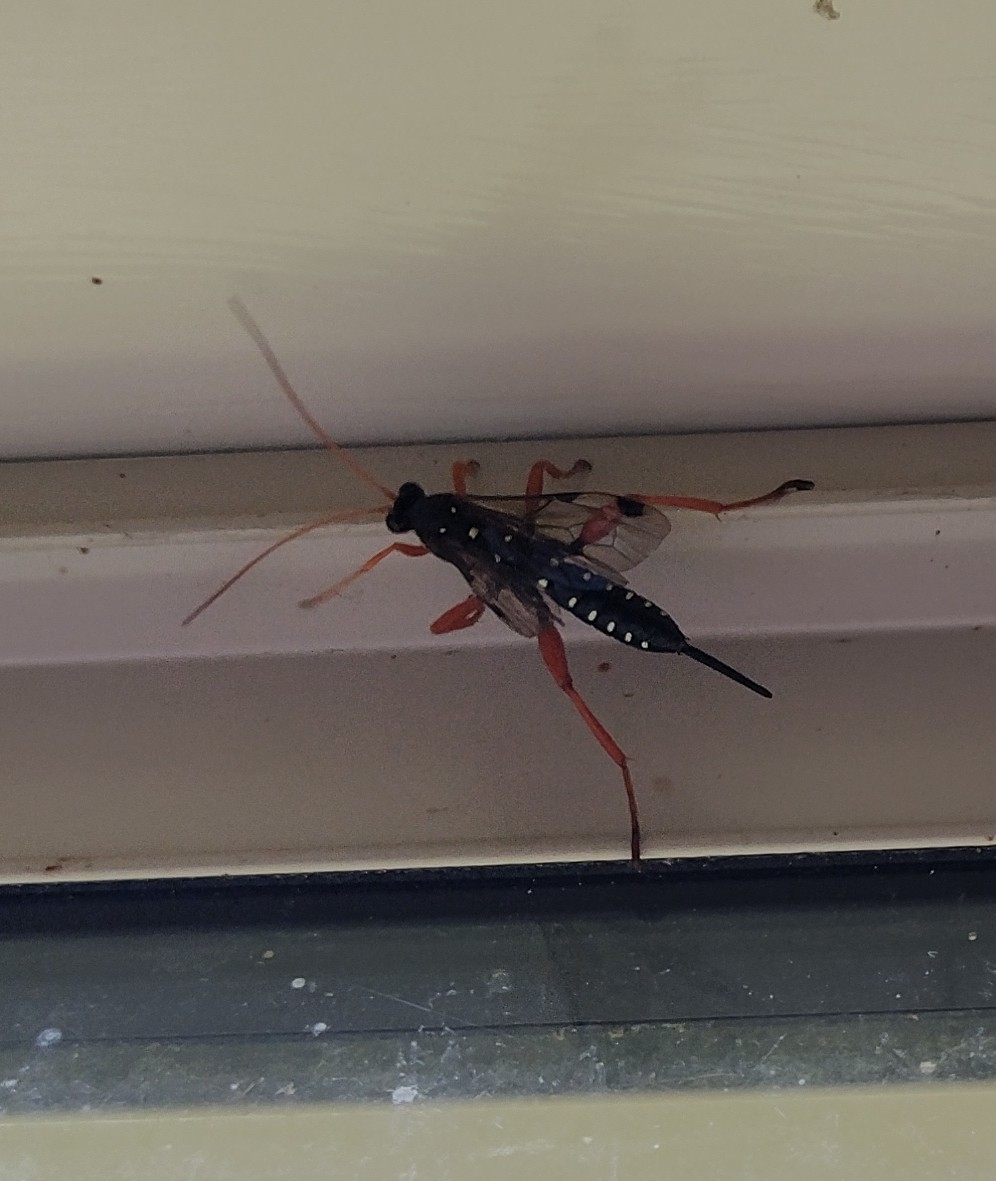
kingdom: Animalia
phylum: Arthropoda
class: Insecta
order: Hymenoptera
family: Ichneumonidae
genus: Echthromorpha
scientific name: Echthromorpha intricatoria
